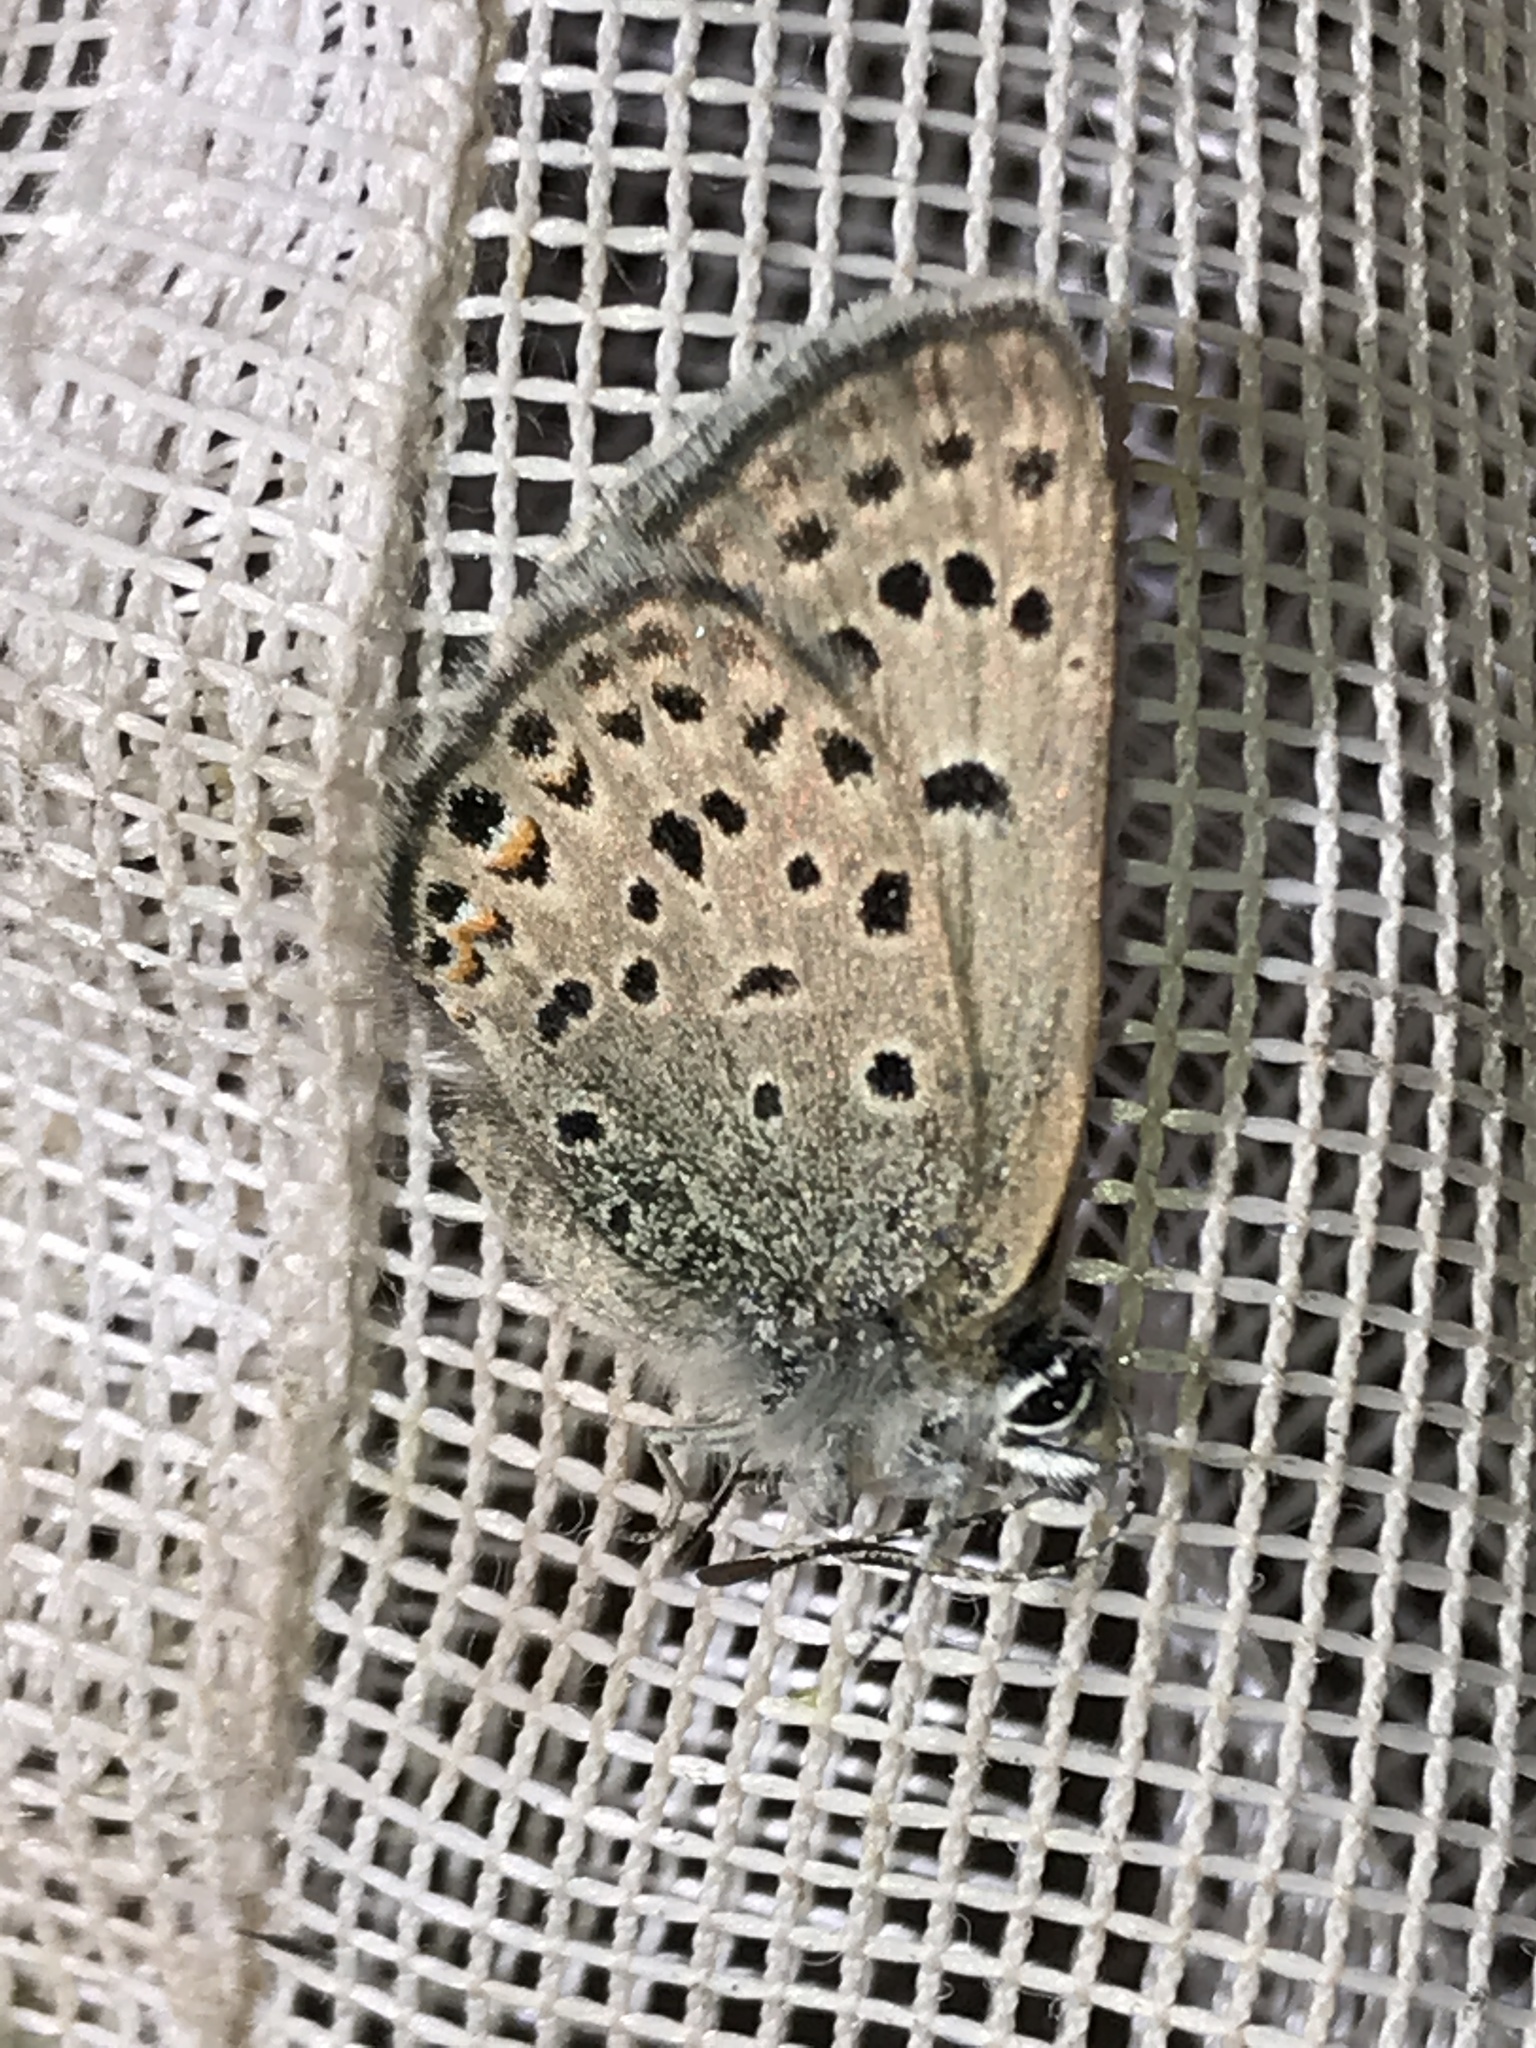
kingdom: Animalia
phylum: Arthropoda
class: Insecta
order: Lepidoptera
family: Lycaenidae
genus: Icaricia
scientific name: Icaricia saepiolus
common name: Greenish blue
